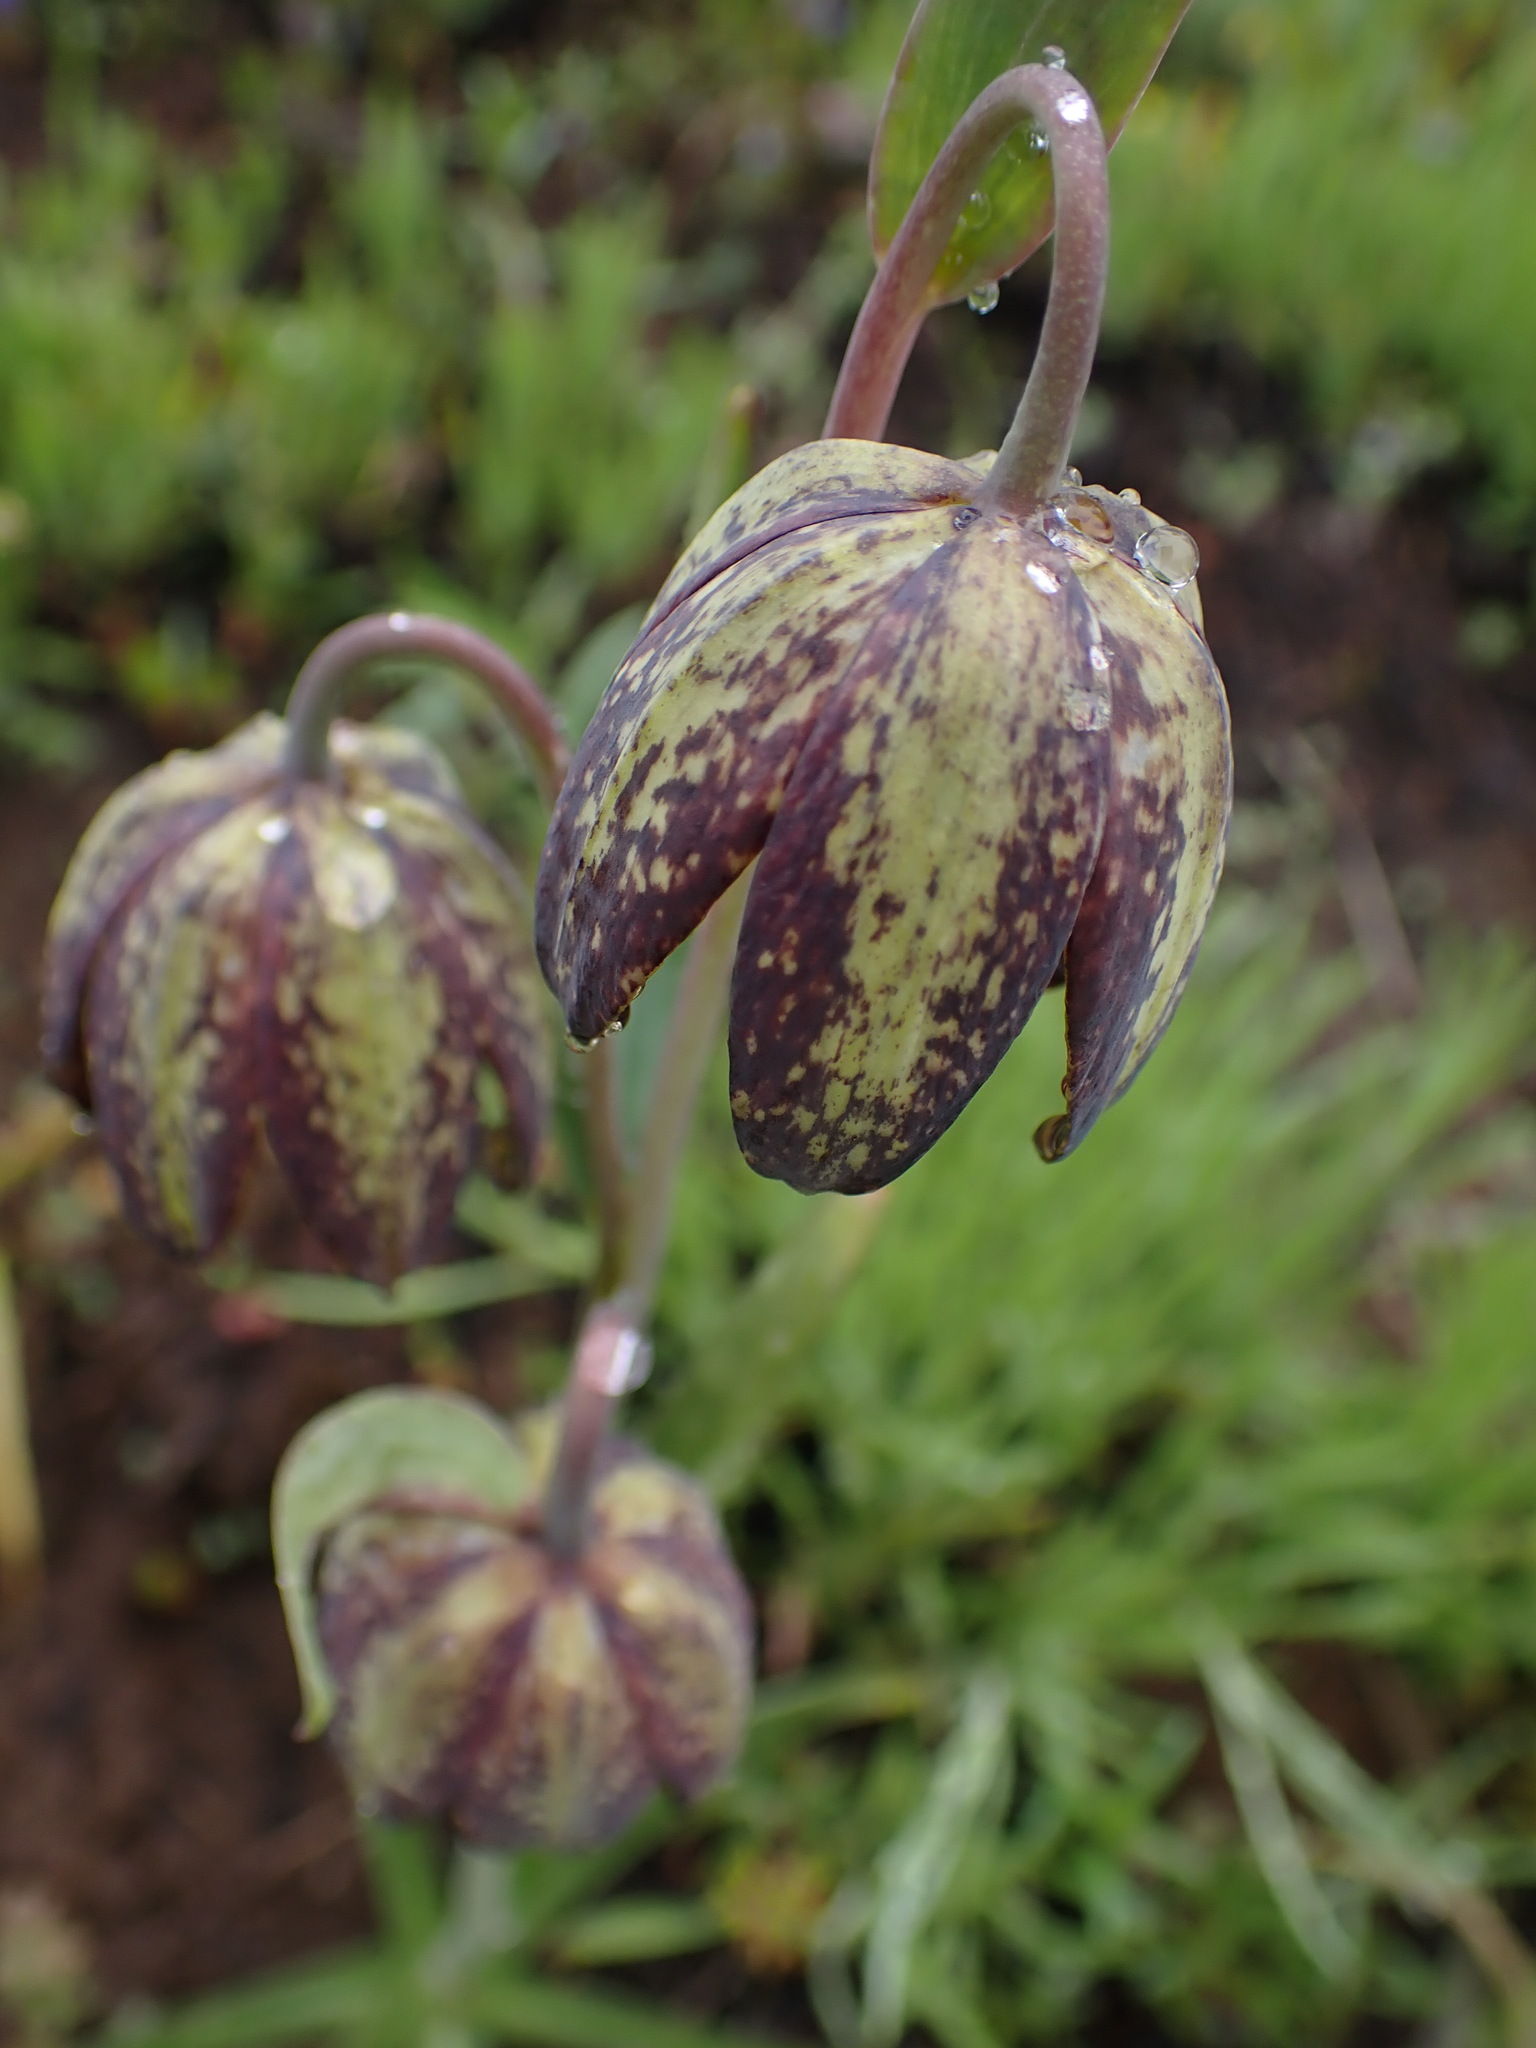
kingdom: Plantae
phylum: Tracheophyta
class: Liliopsida
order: Liliales
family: Liliaceae
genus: Fritillaria
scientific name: Fritillaria affinis
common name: Ojai fritillary
